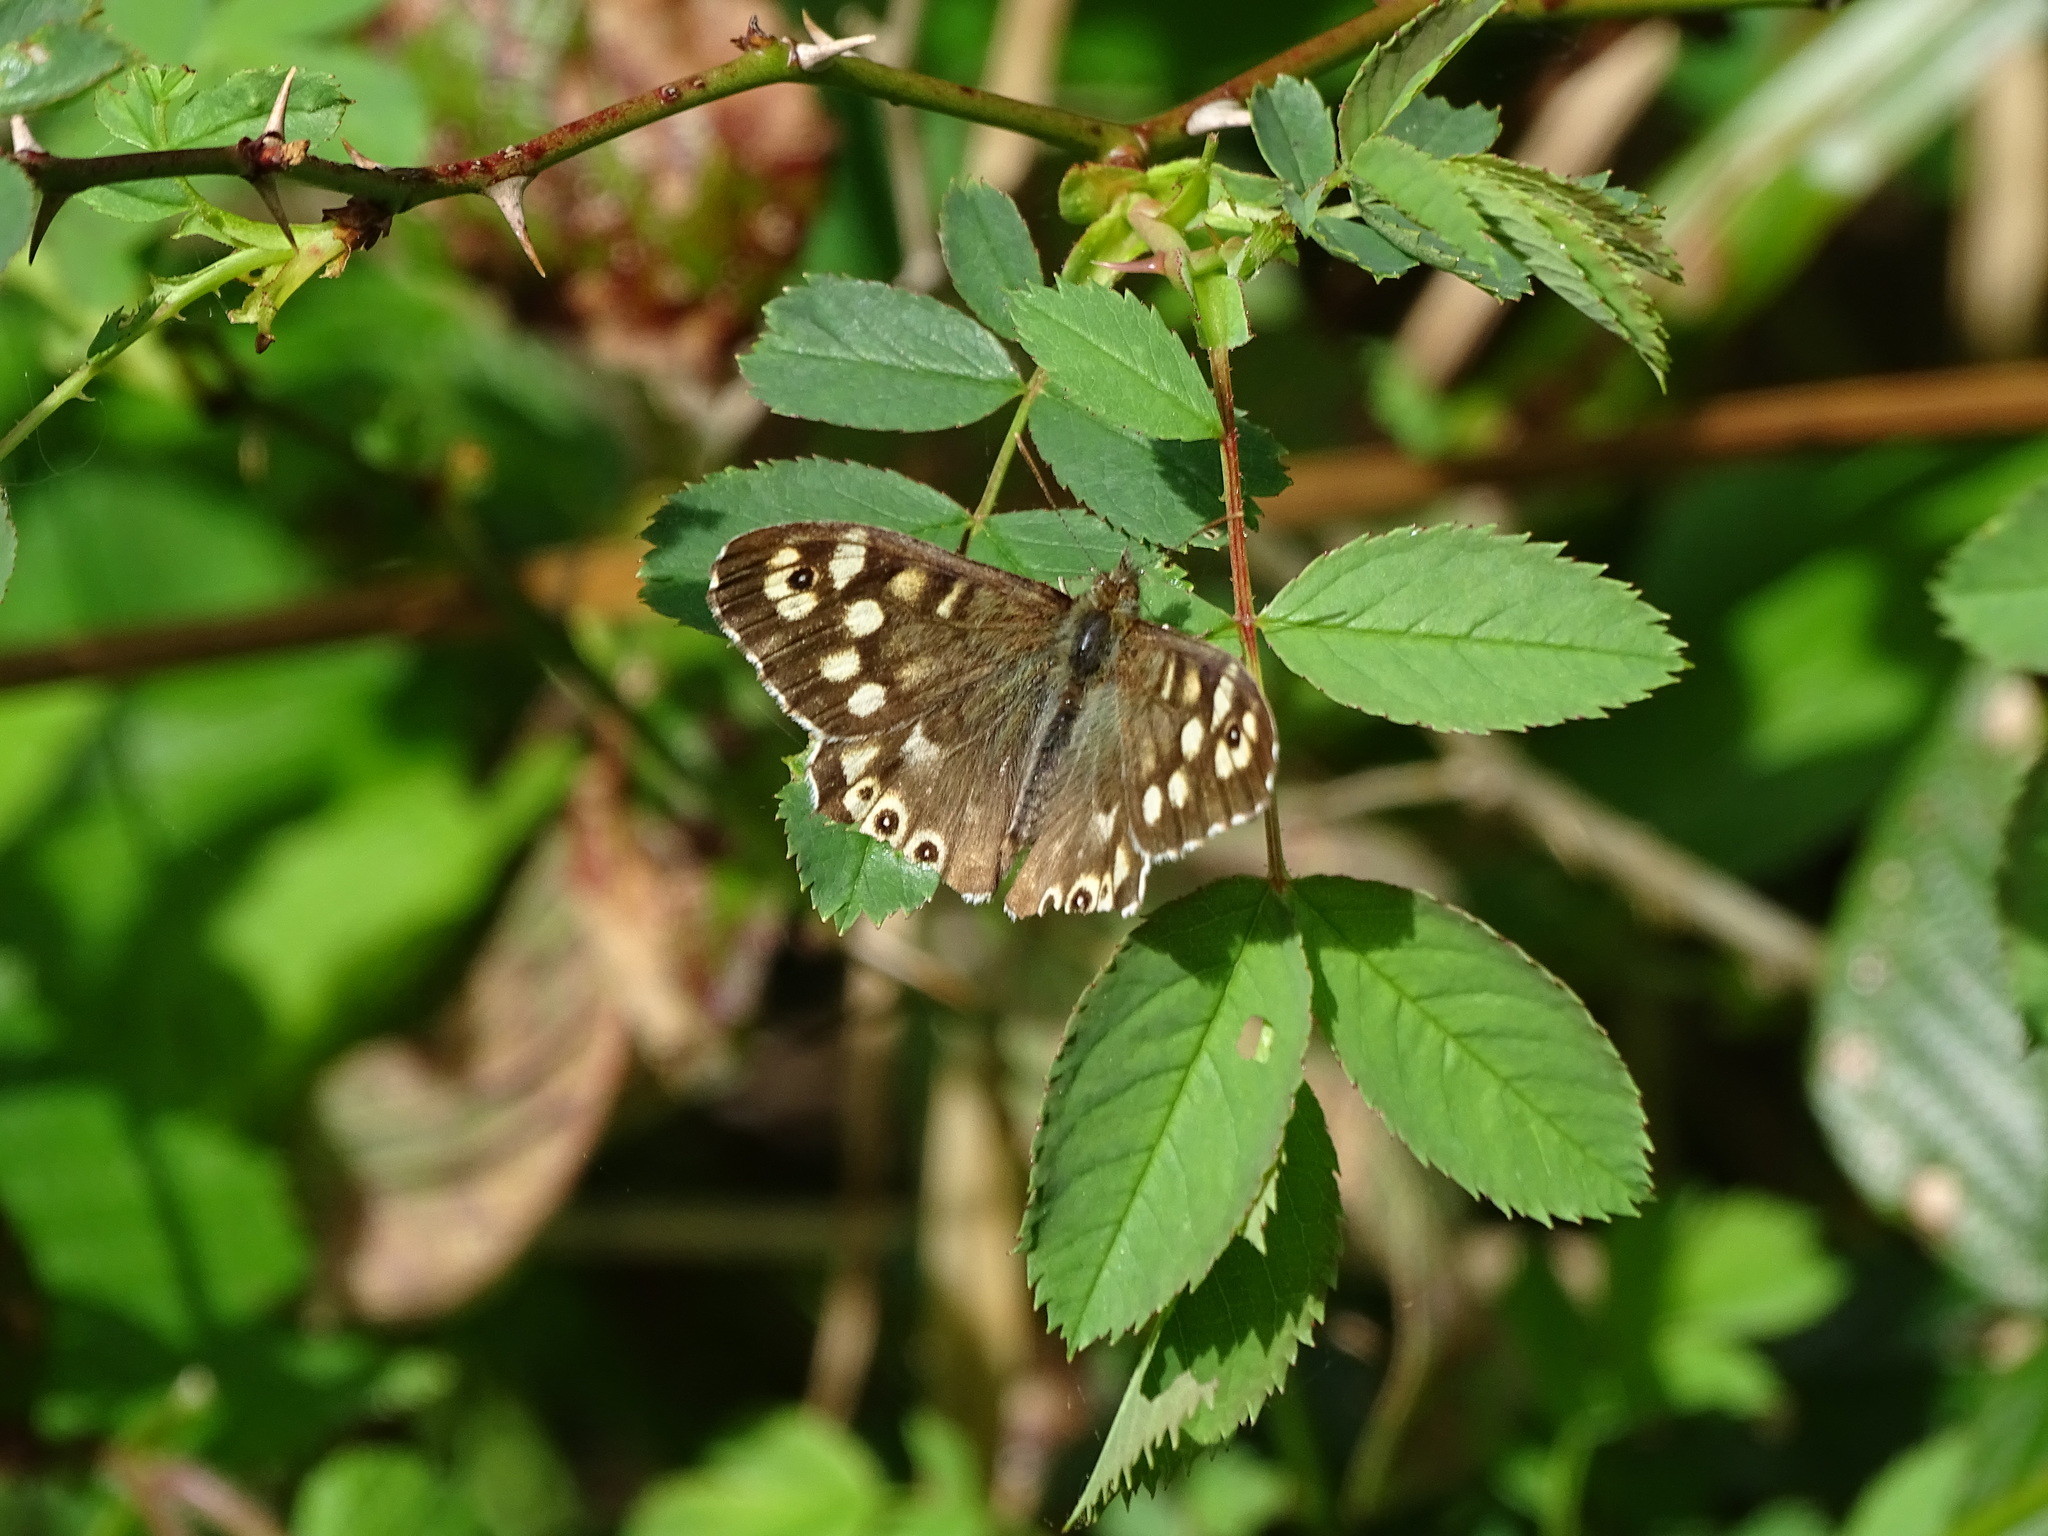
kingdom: Animalia
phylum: Arthropoda
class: Insecta
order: Lepidoptera
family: Nymphalidae
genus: Pararge
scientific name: Pararge aegeria
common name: Speckled wood
